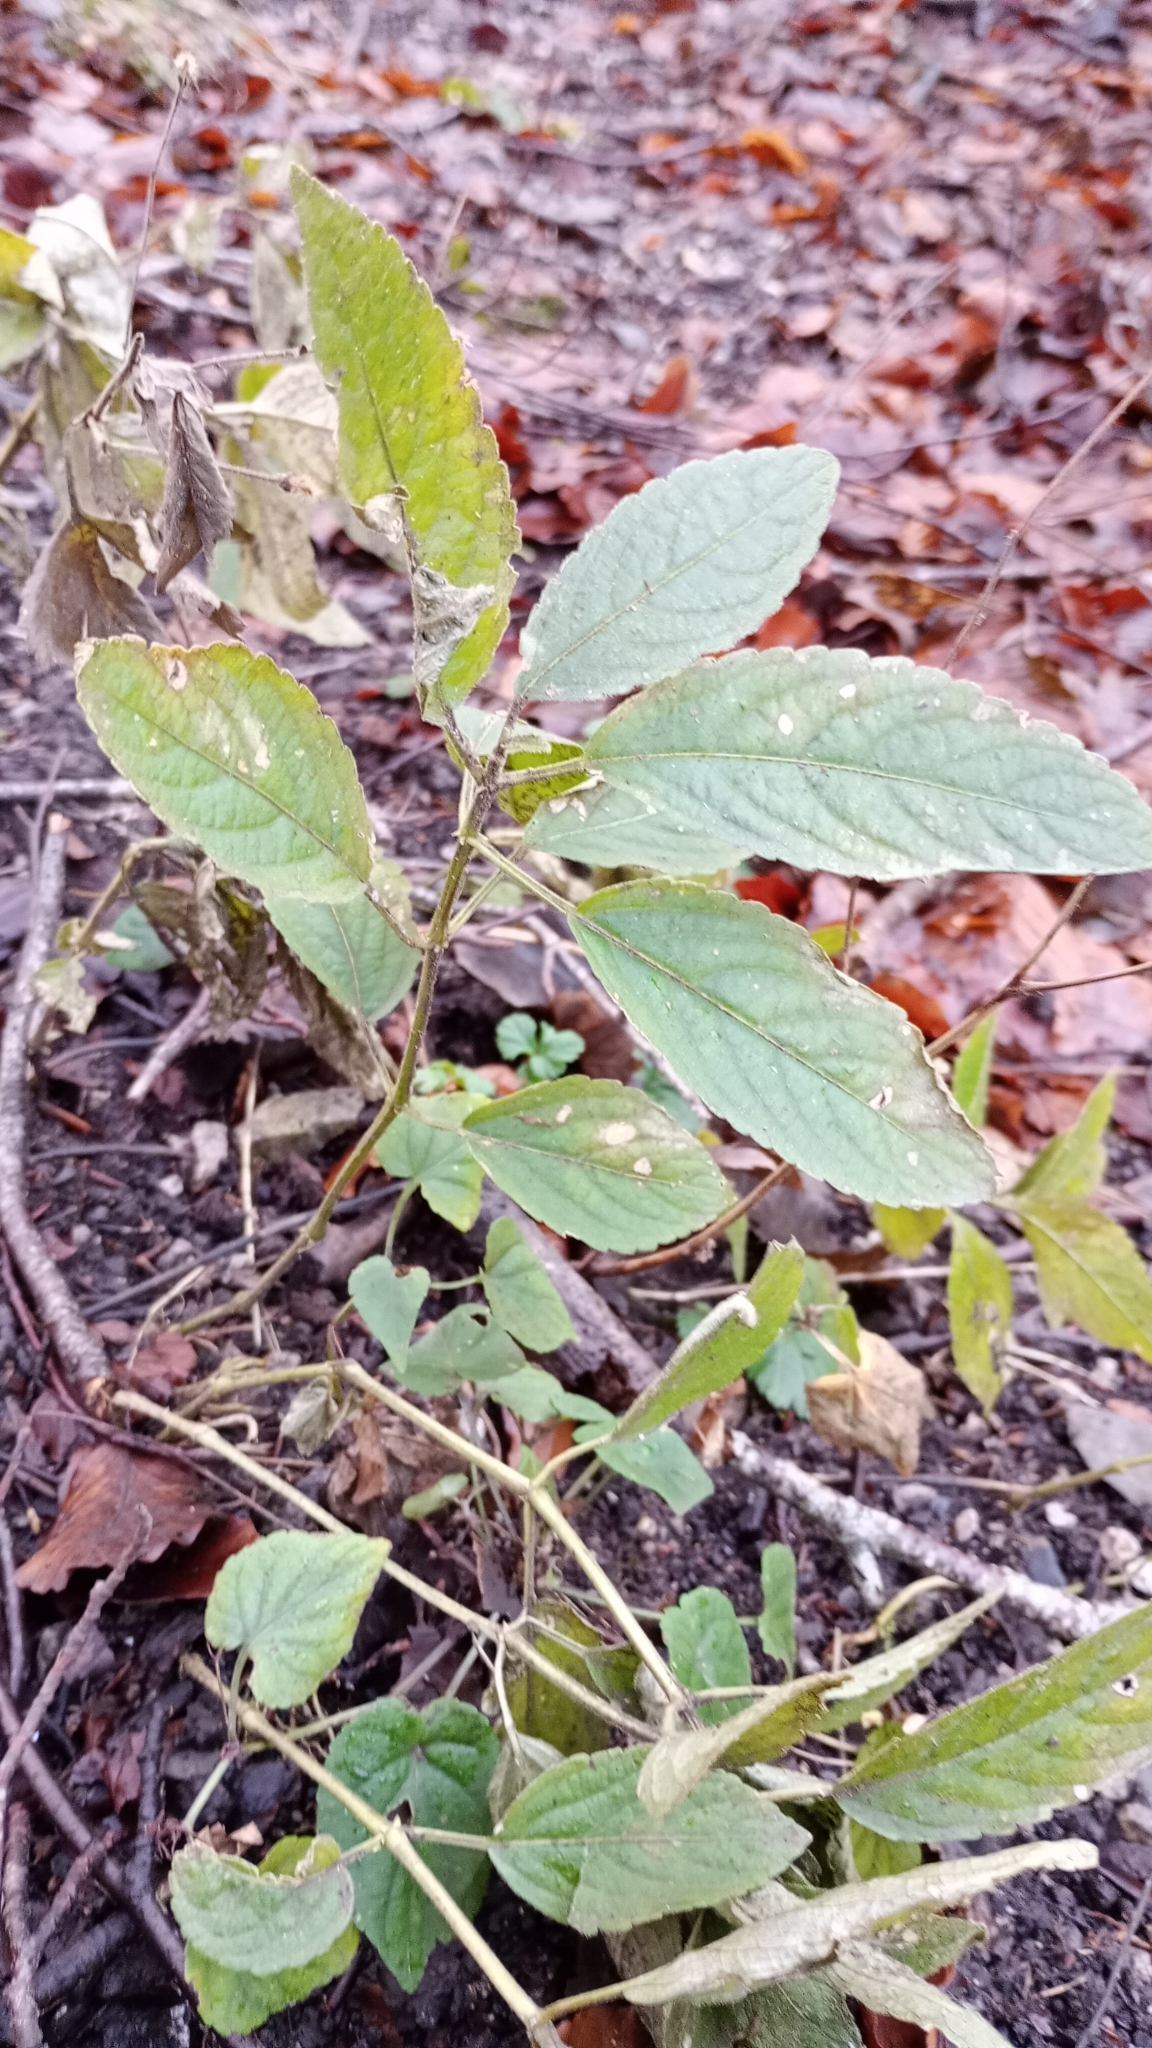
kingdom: Plantae
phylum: Tracheophyta
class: Magnoliopsida
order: Malpighiales
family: Euphorbiaceae
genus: Mercurialis
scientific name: Mercurialis perennis
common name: Dog mercury
